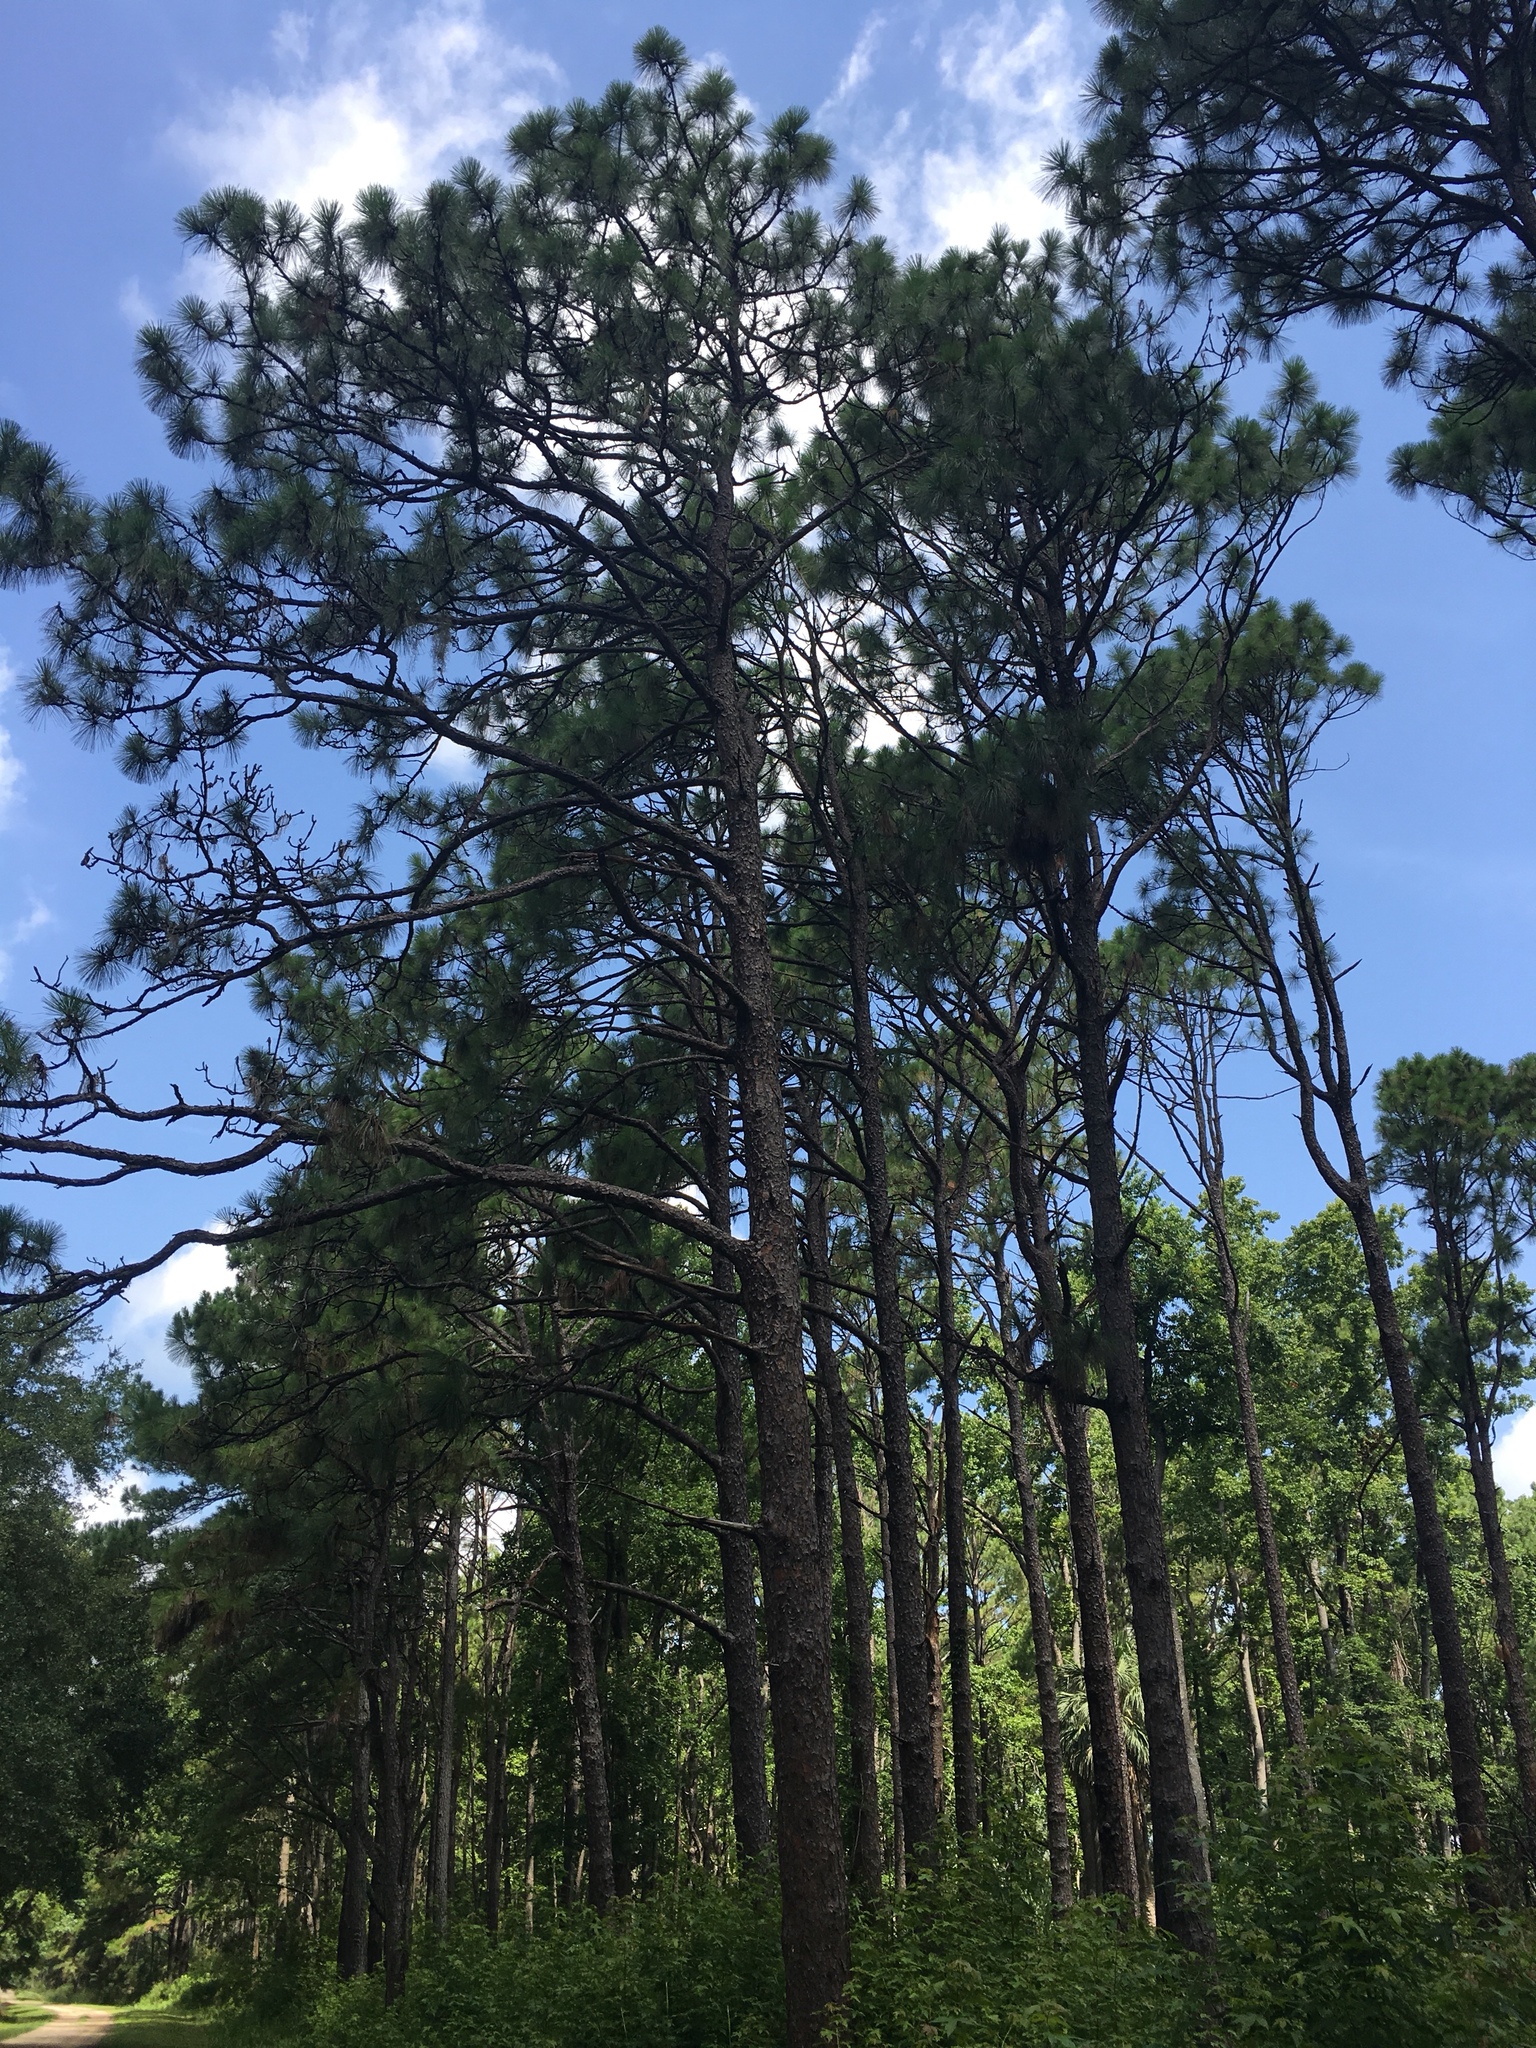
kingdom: Plantae
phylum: Tracheophyta
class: Pinopsida
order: Pinales
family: Pinaceae
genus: Pinus
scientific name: Pinus palustris
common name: Longleaf pine
